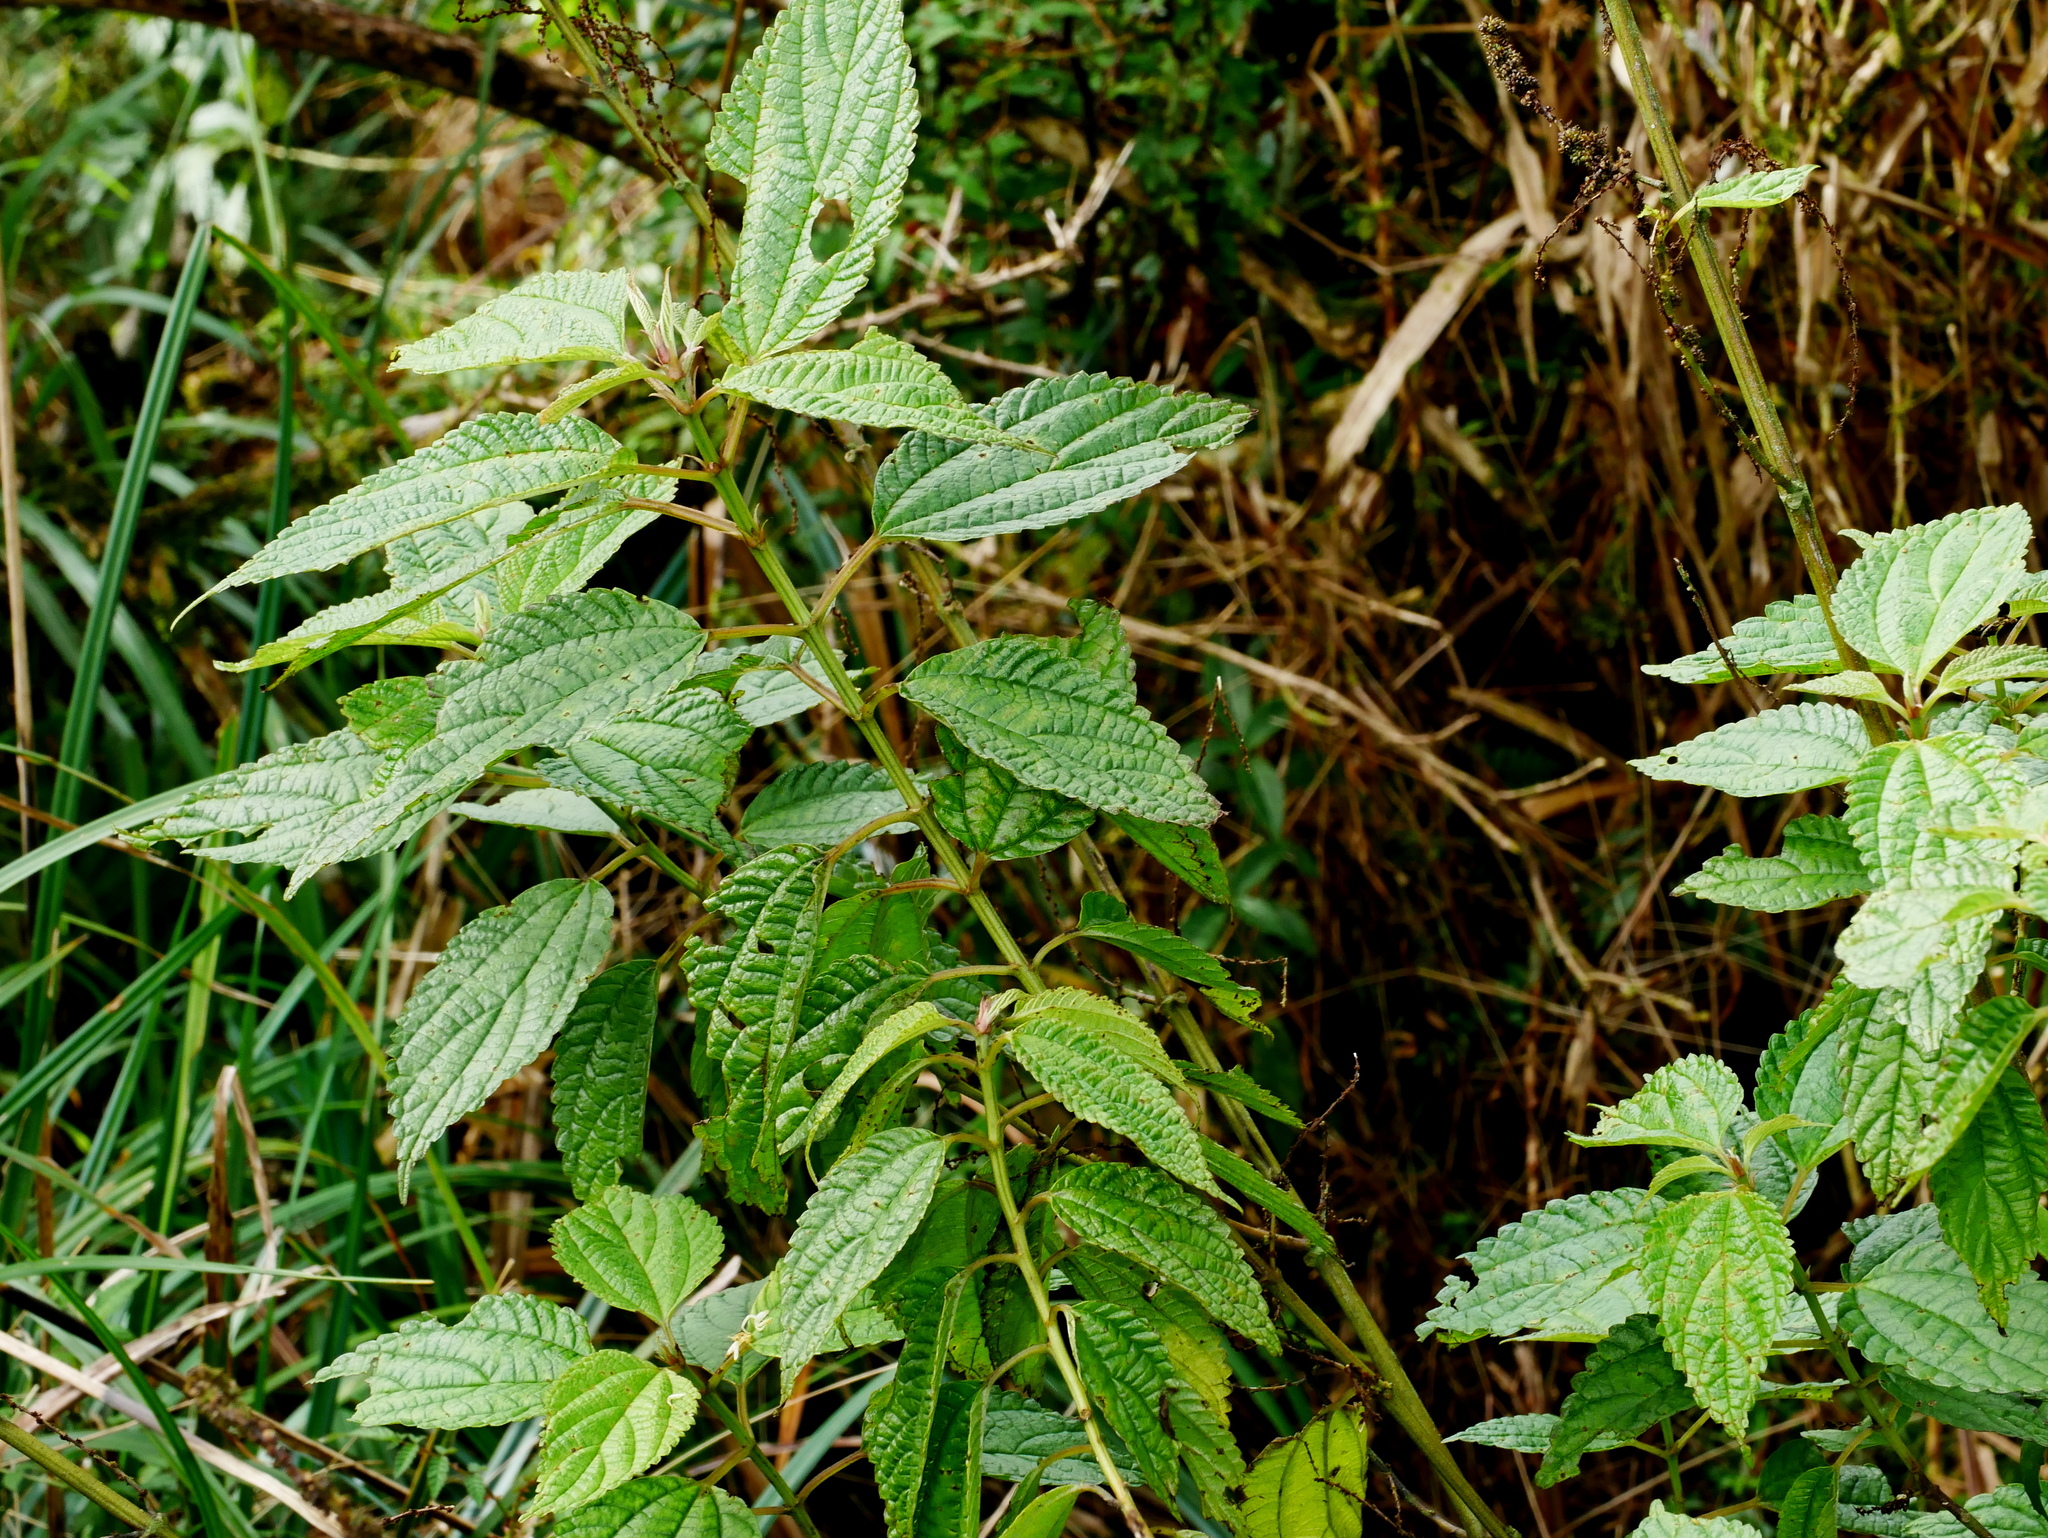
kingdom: Plantae
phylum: Tracheophyta
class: Magnoliopsida
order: Rosales
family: Urticaceae
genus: Boehmeria
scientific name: Boehmeria sieboldiana
